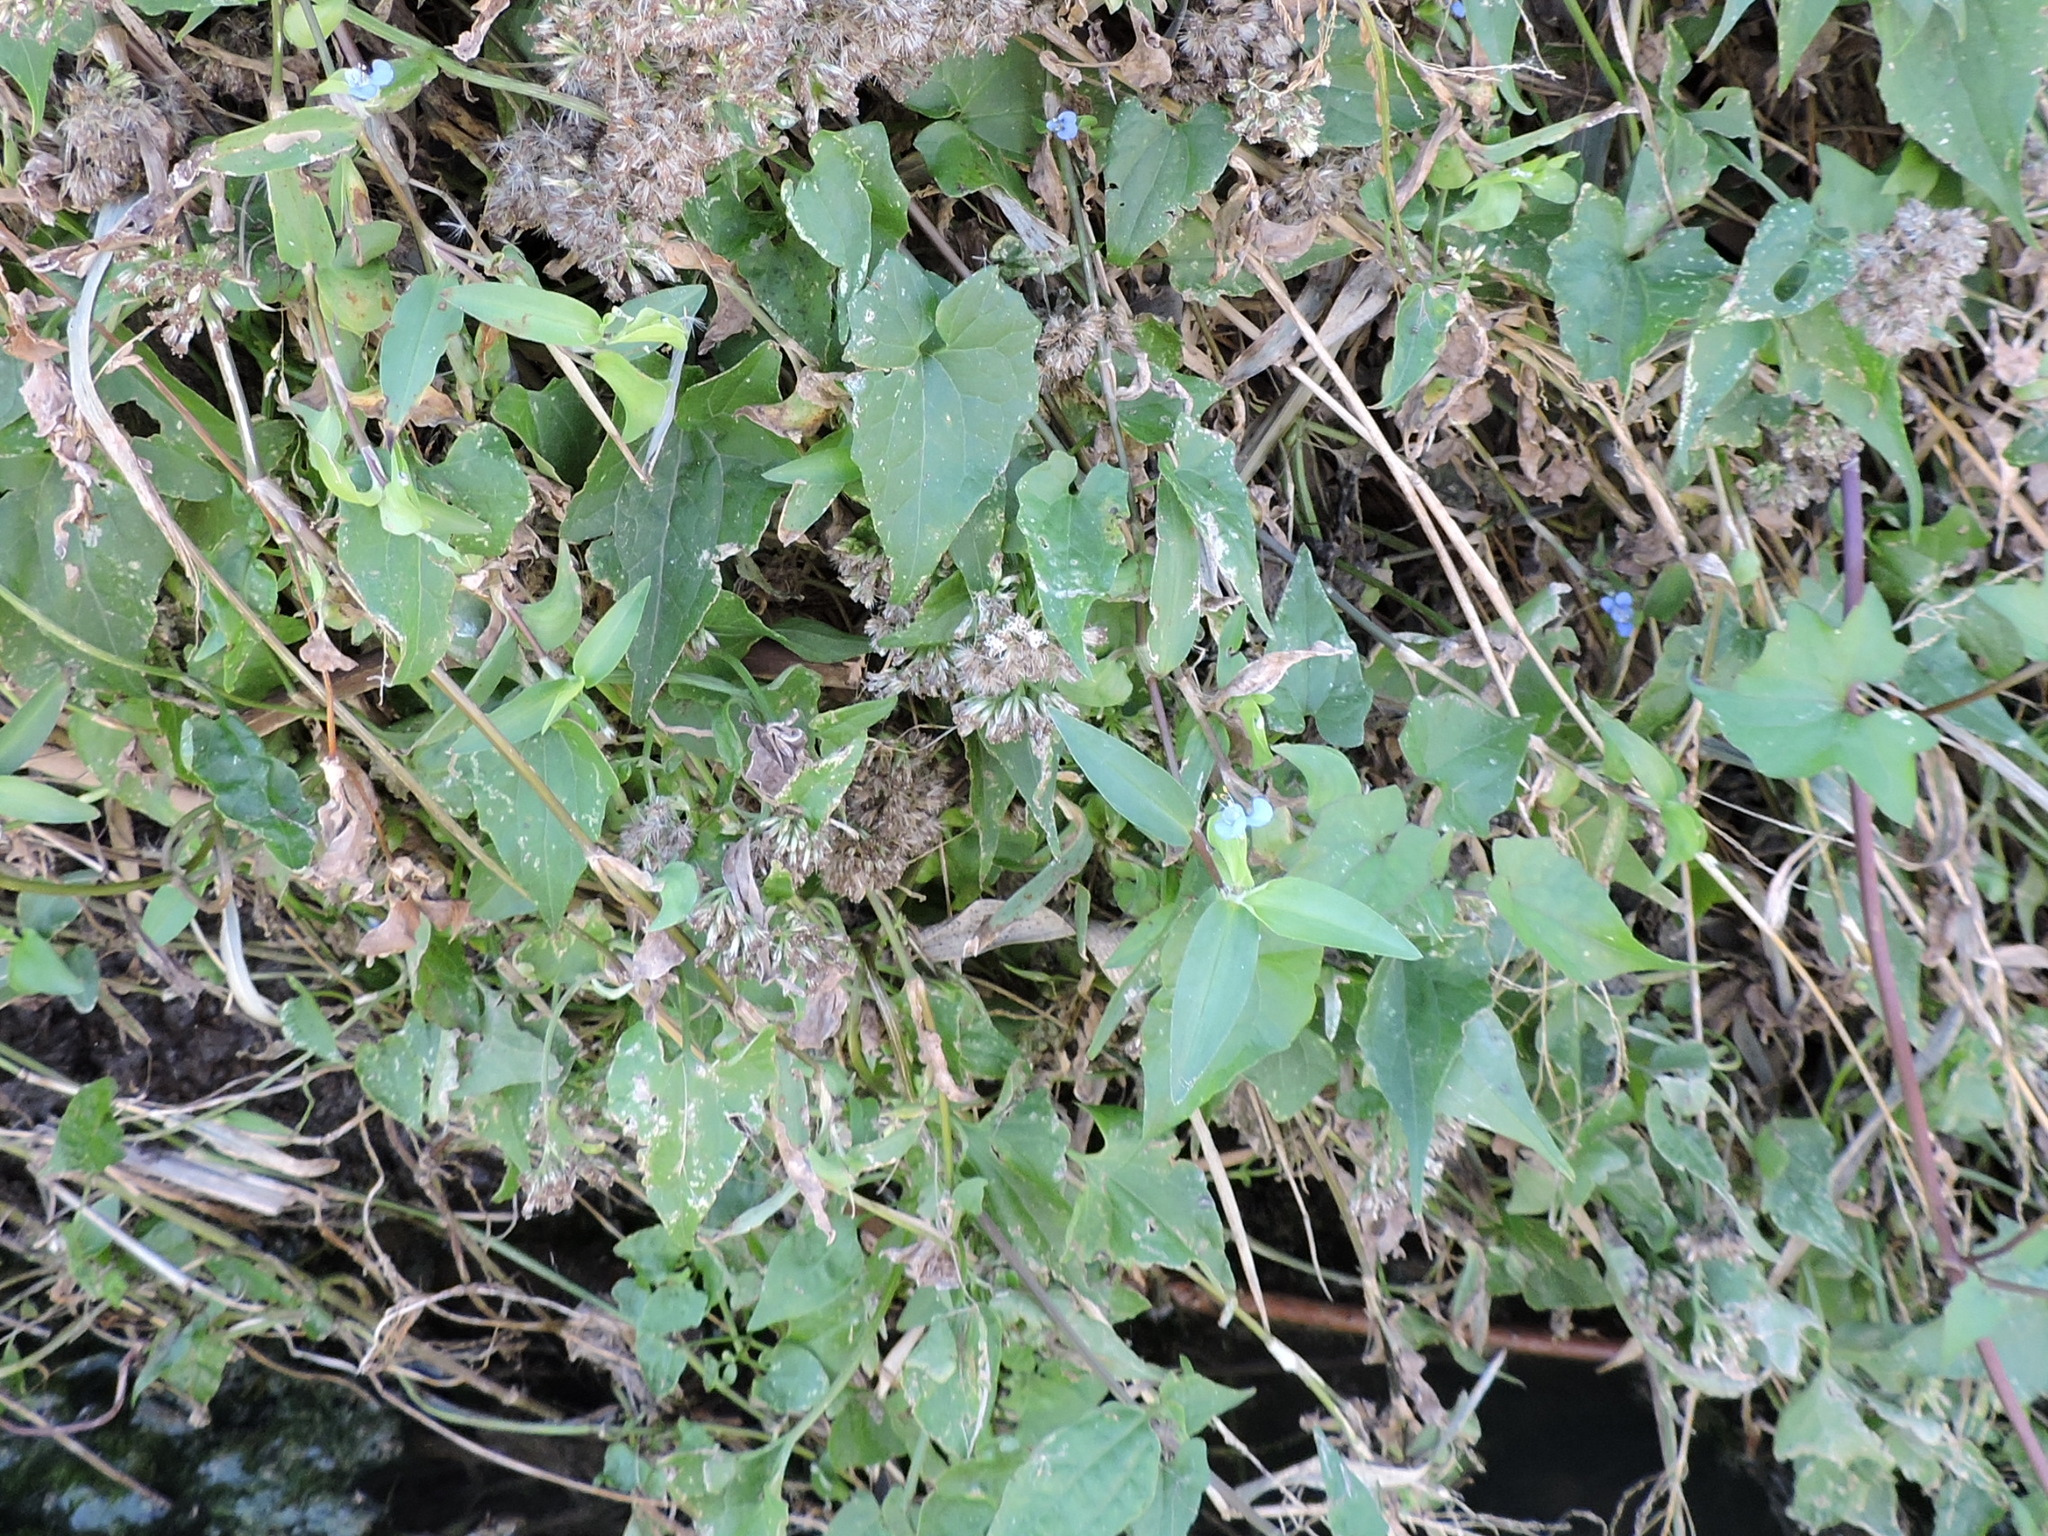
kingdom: Plantae
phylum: Tracheophyta
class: Liliopsida
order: Commelinales
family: Commelinaceae
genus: Commelina
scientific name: Commelina diffusa
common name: Climbing dayflower
